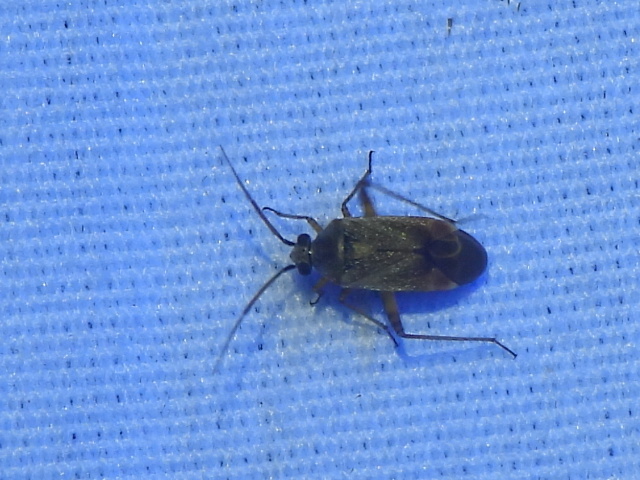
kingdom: Animalia
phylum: Arthropoda
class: Insecta
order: Hemiptera
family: Miridae
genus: Polymerus
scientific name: Polymerus basalis
